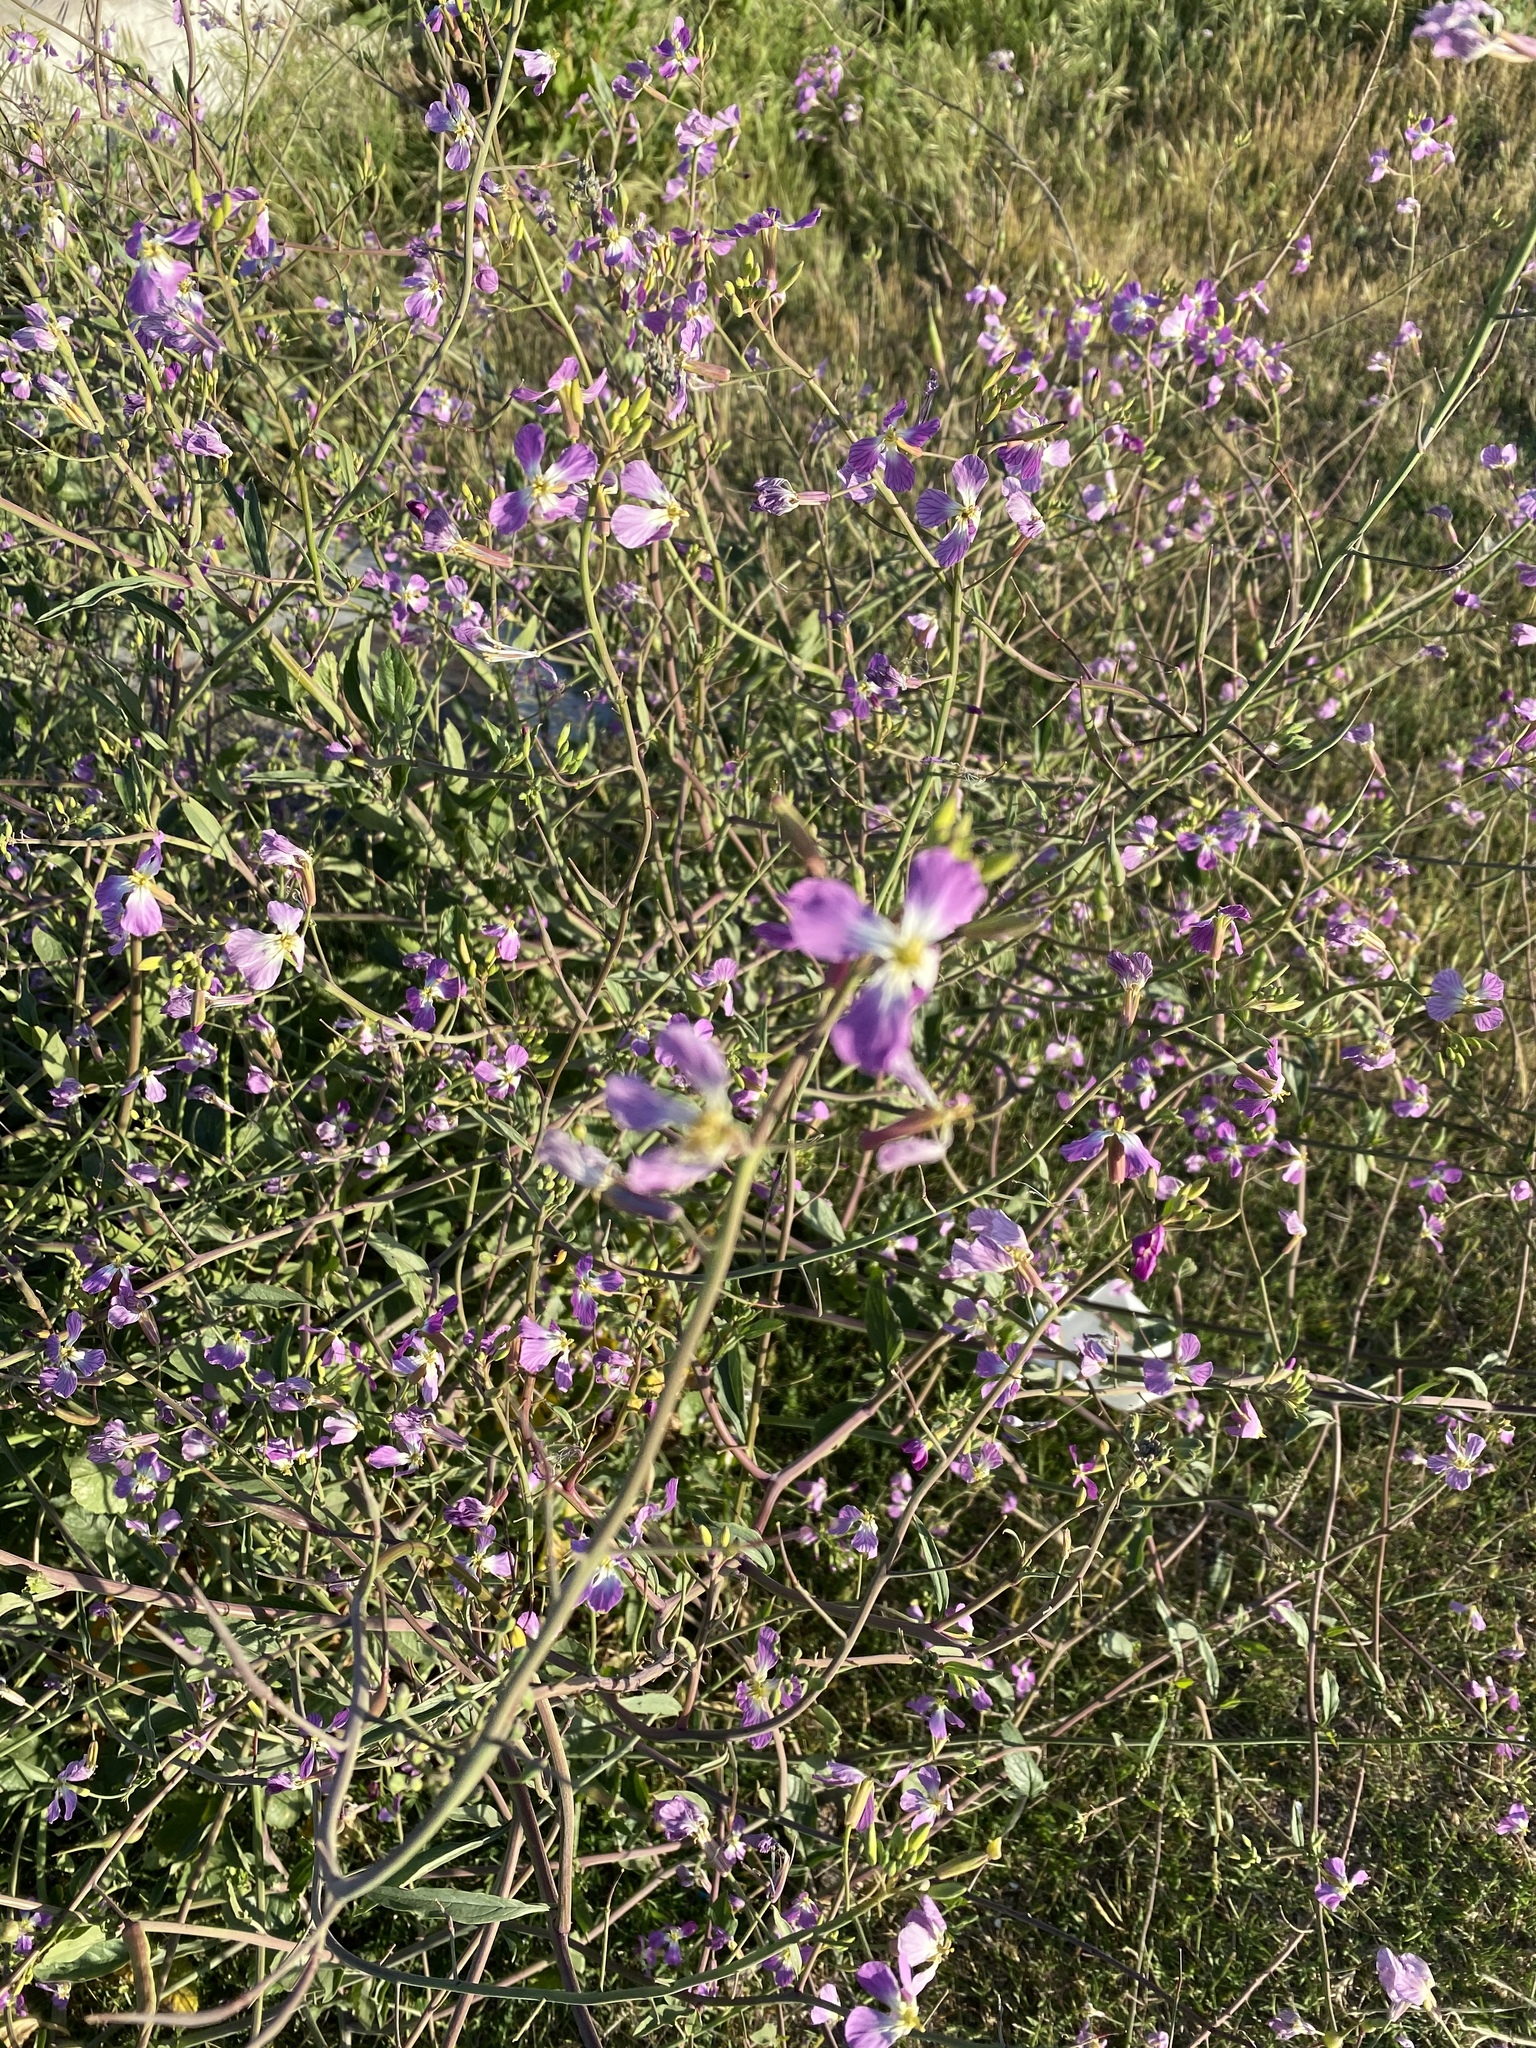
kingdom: Plantae
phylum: Tracheophyta
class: Magnoliopsida
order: Brassicales
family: Brassicaceae
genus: Raphanus
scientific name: Raphanus sativus
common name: Cultivated radish
